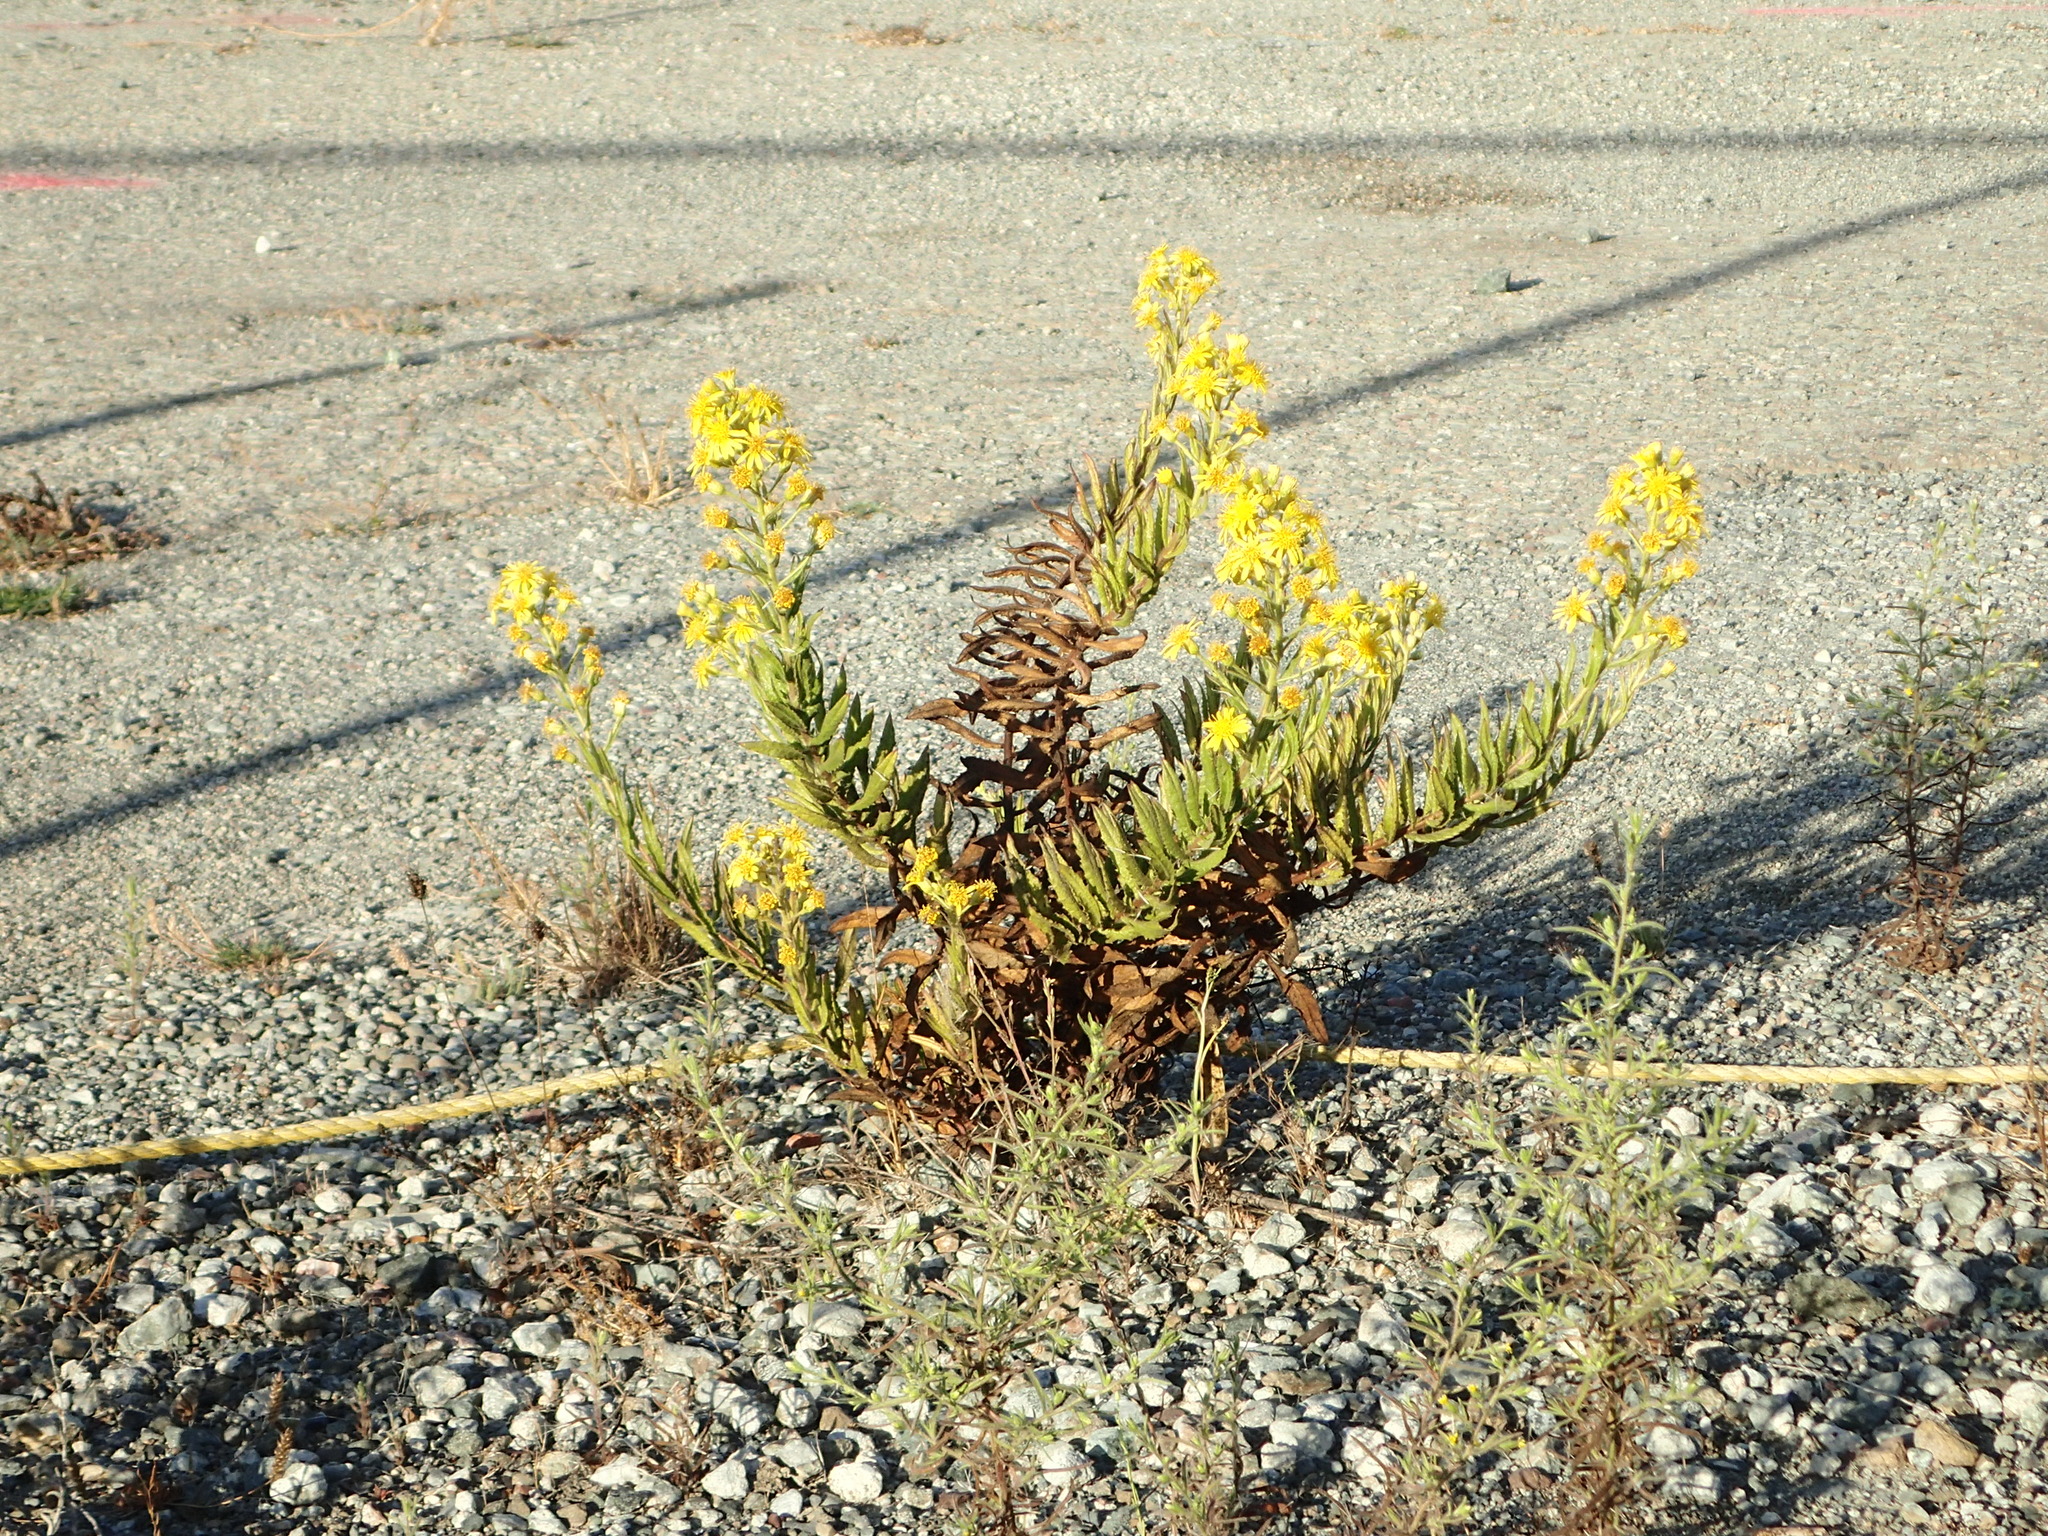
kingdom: Plantae
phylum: Tracheophyta
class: Magnoliopsida
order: Asterales
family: Asteraceae
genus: Dittrichia
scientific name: Dittrichia viscosa
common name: Woody fleabane
